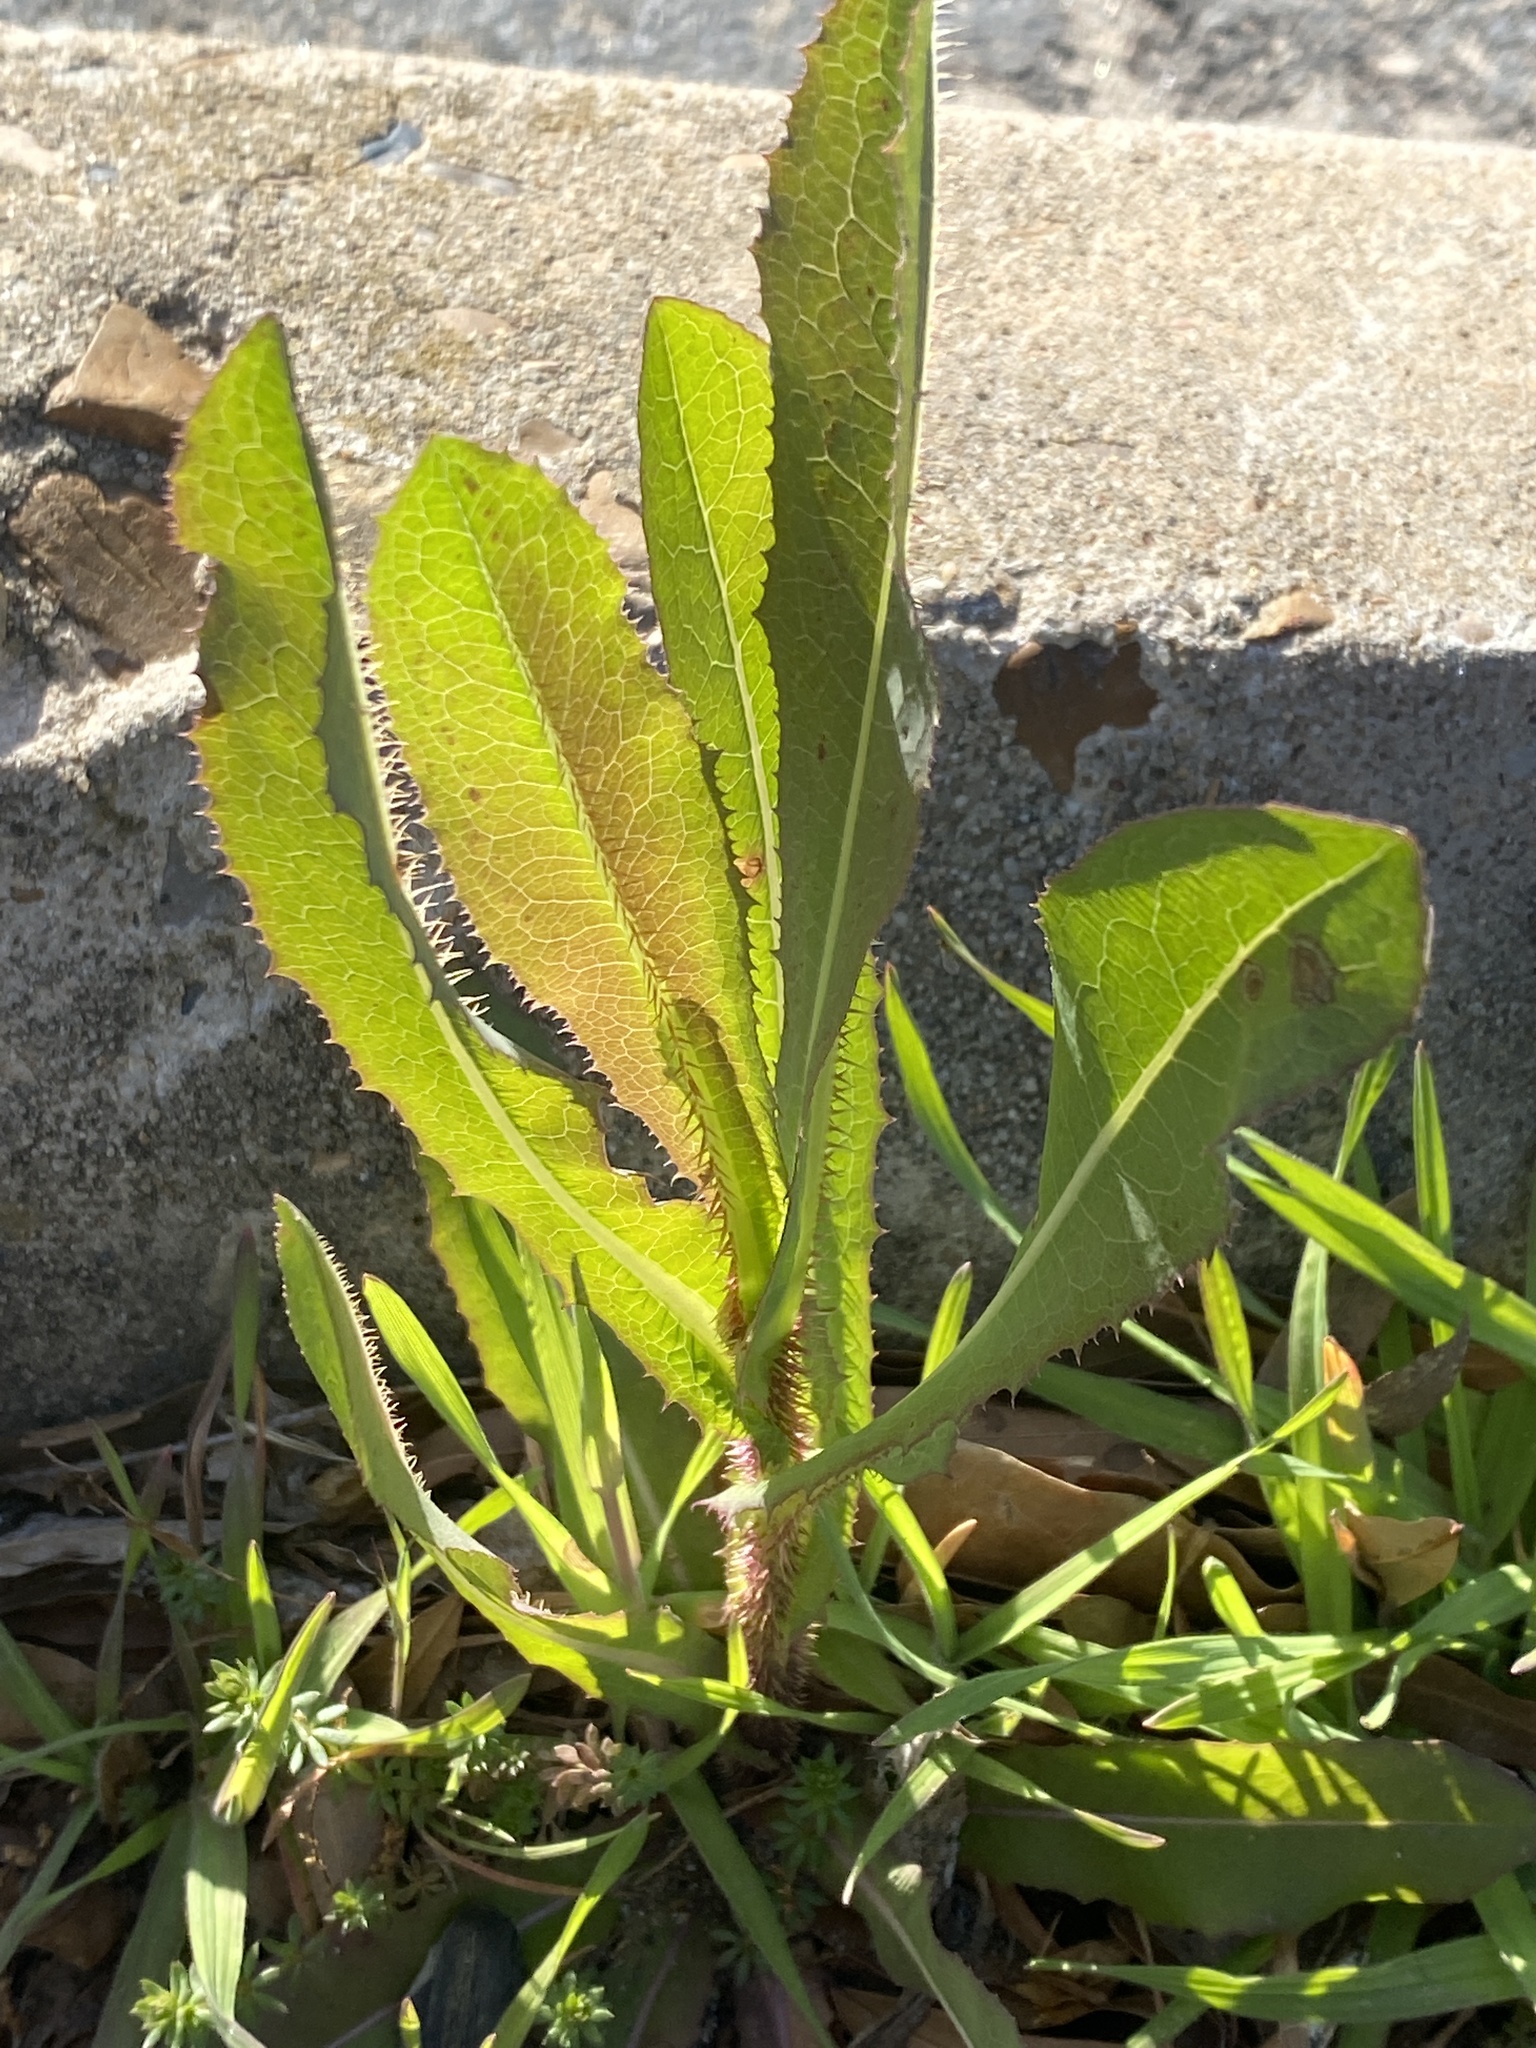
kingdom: Plantae
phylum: Tracheophyta
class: Magnoliopsida
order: Asterales
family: Asteraceae
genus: Lactuca
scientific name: Lactuca serriola
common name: Prickly lettuce
